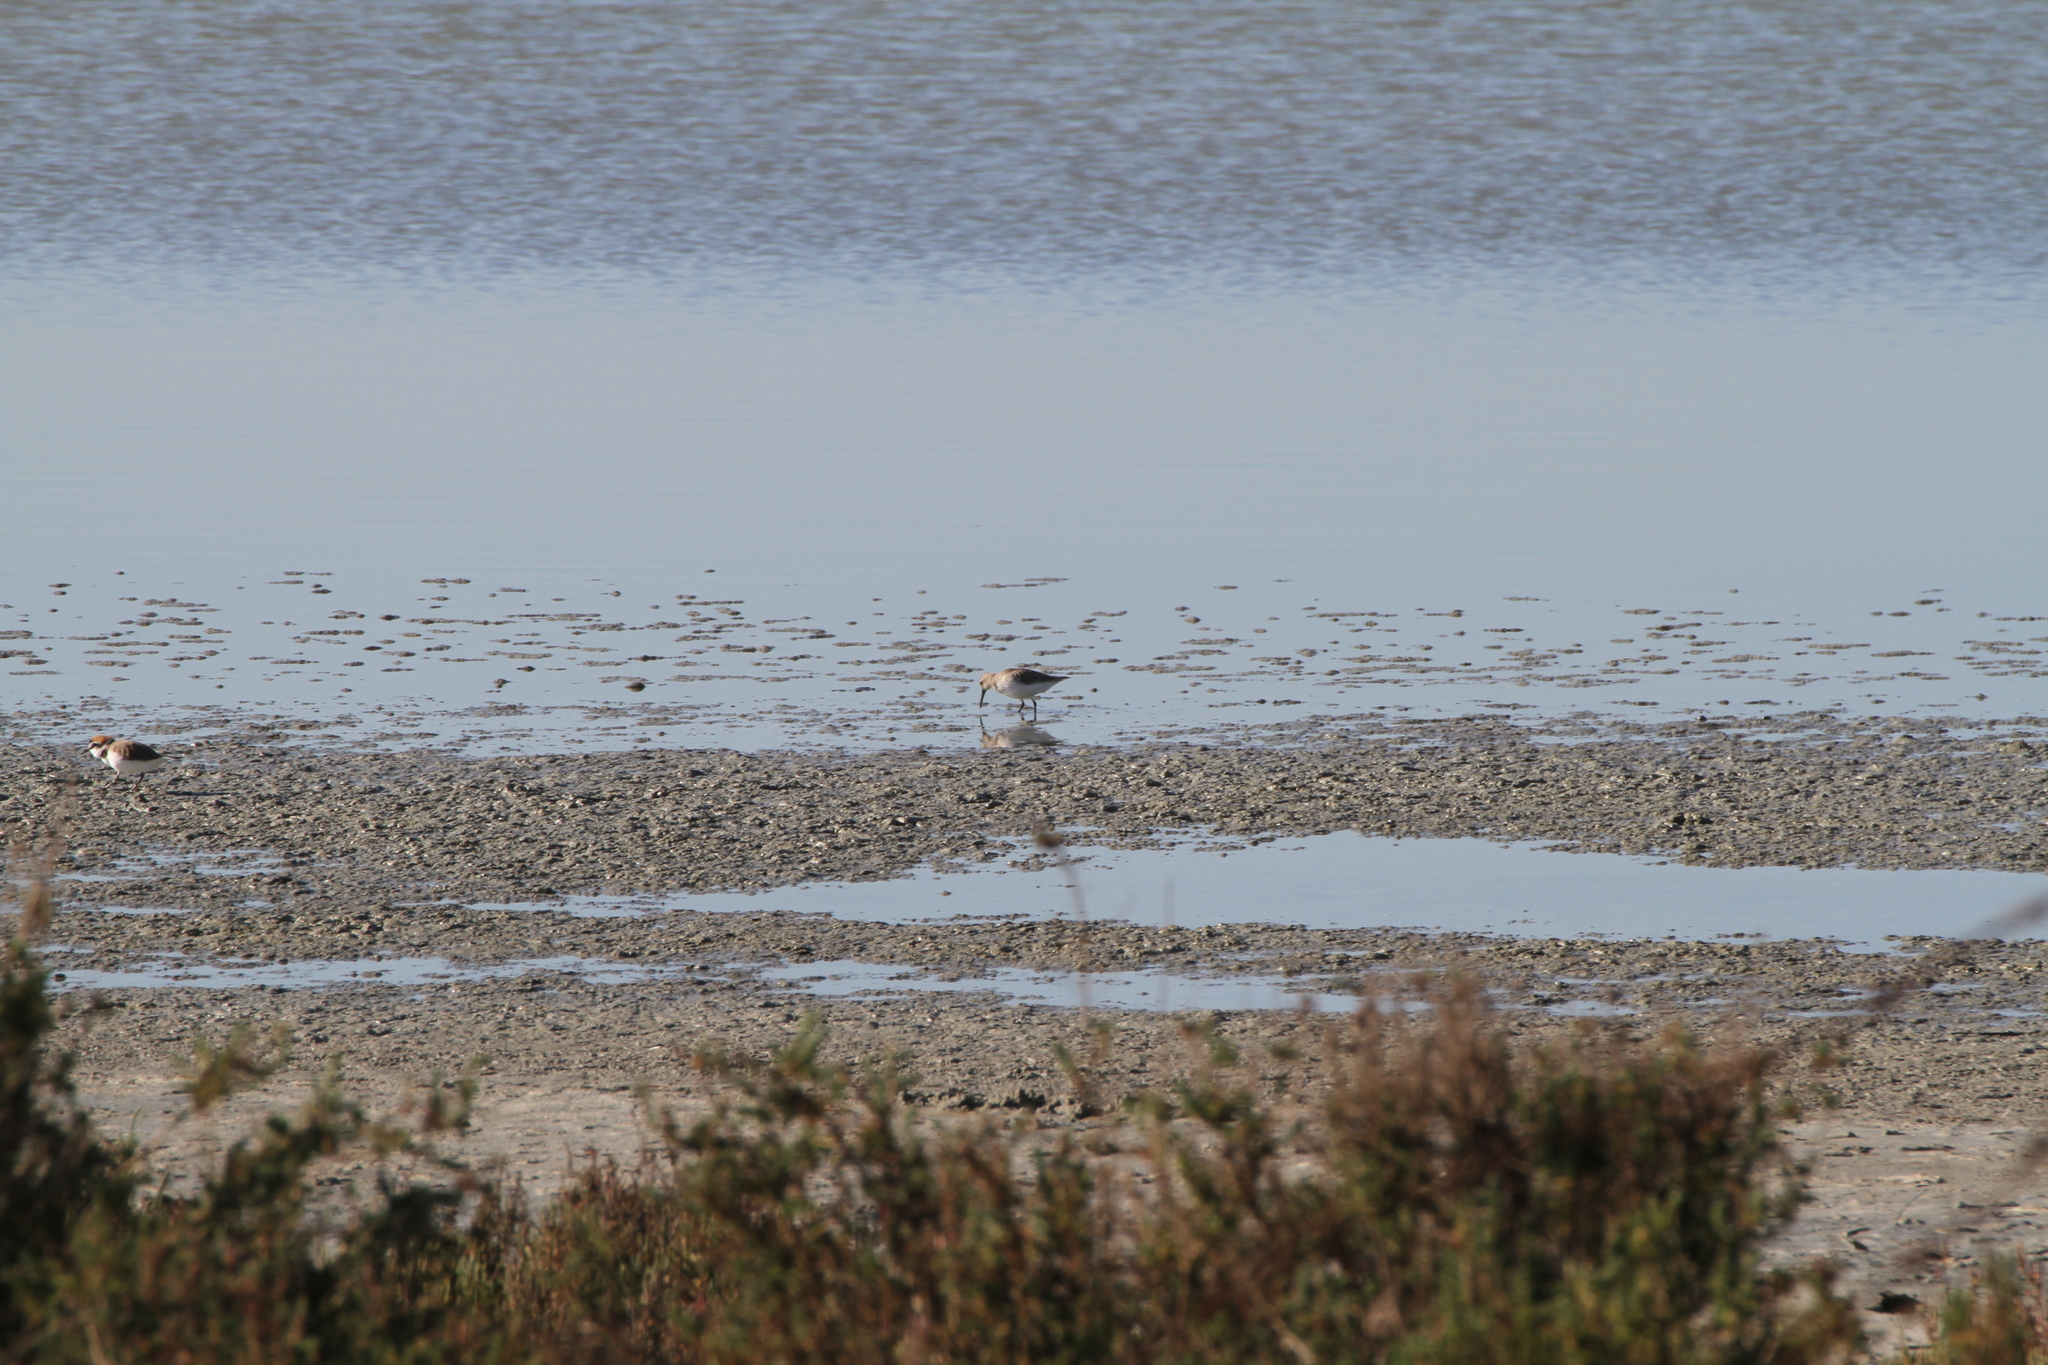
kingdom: Animalia
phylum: Chordata
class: Aves
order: Charadriiformes
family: Scolopacidae
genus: Calidris
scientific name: Calidris alpina
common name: Dunlin
